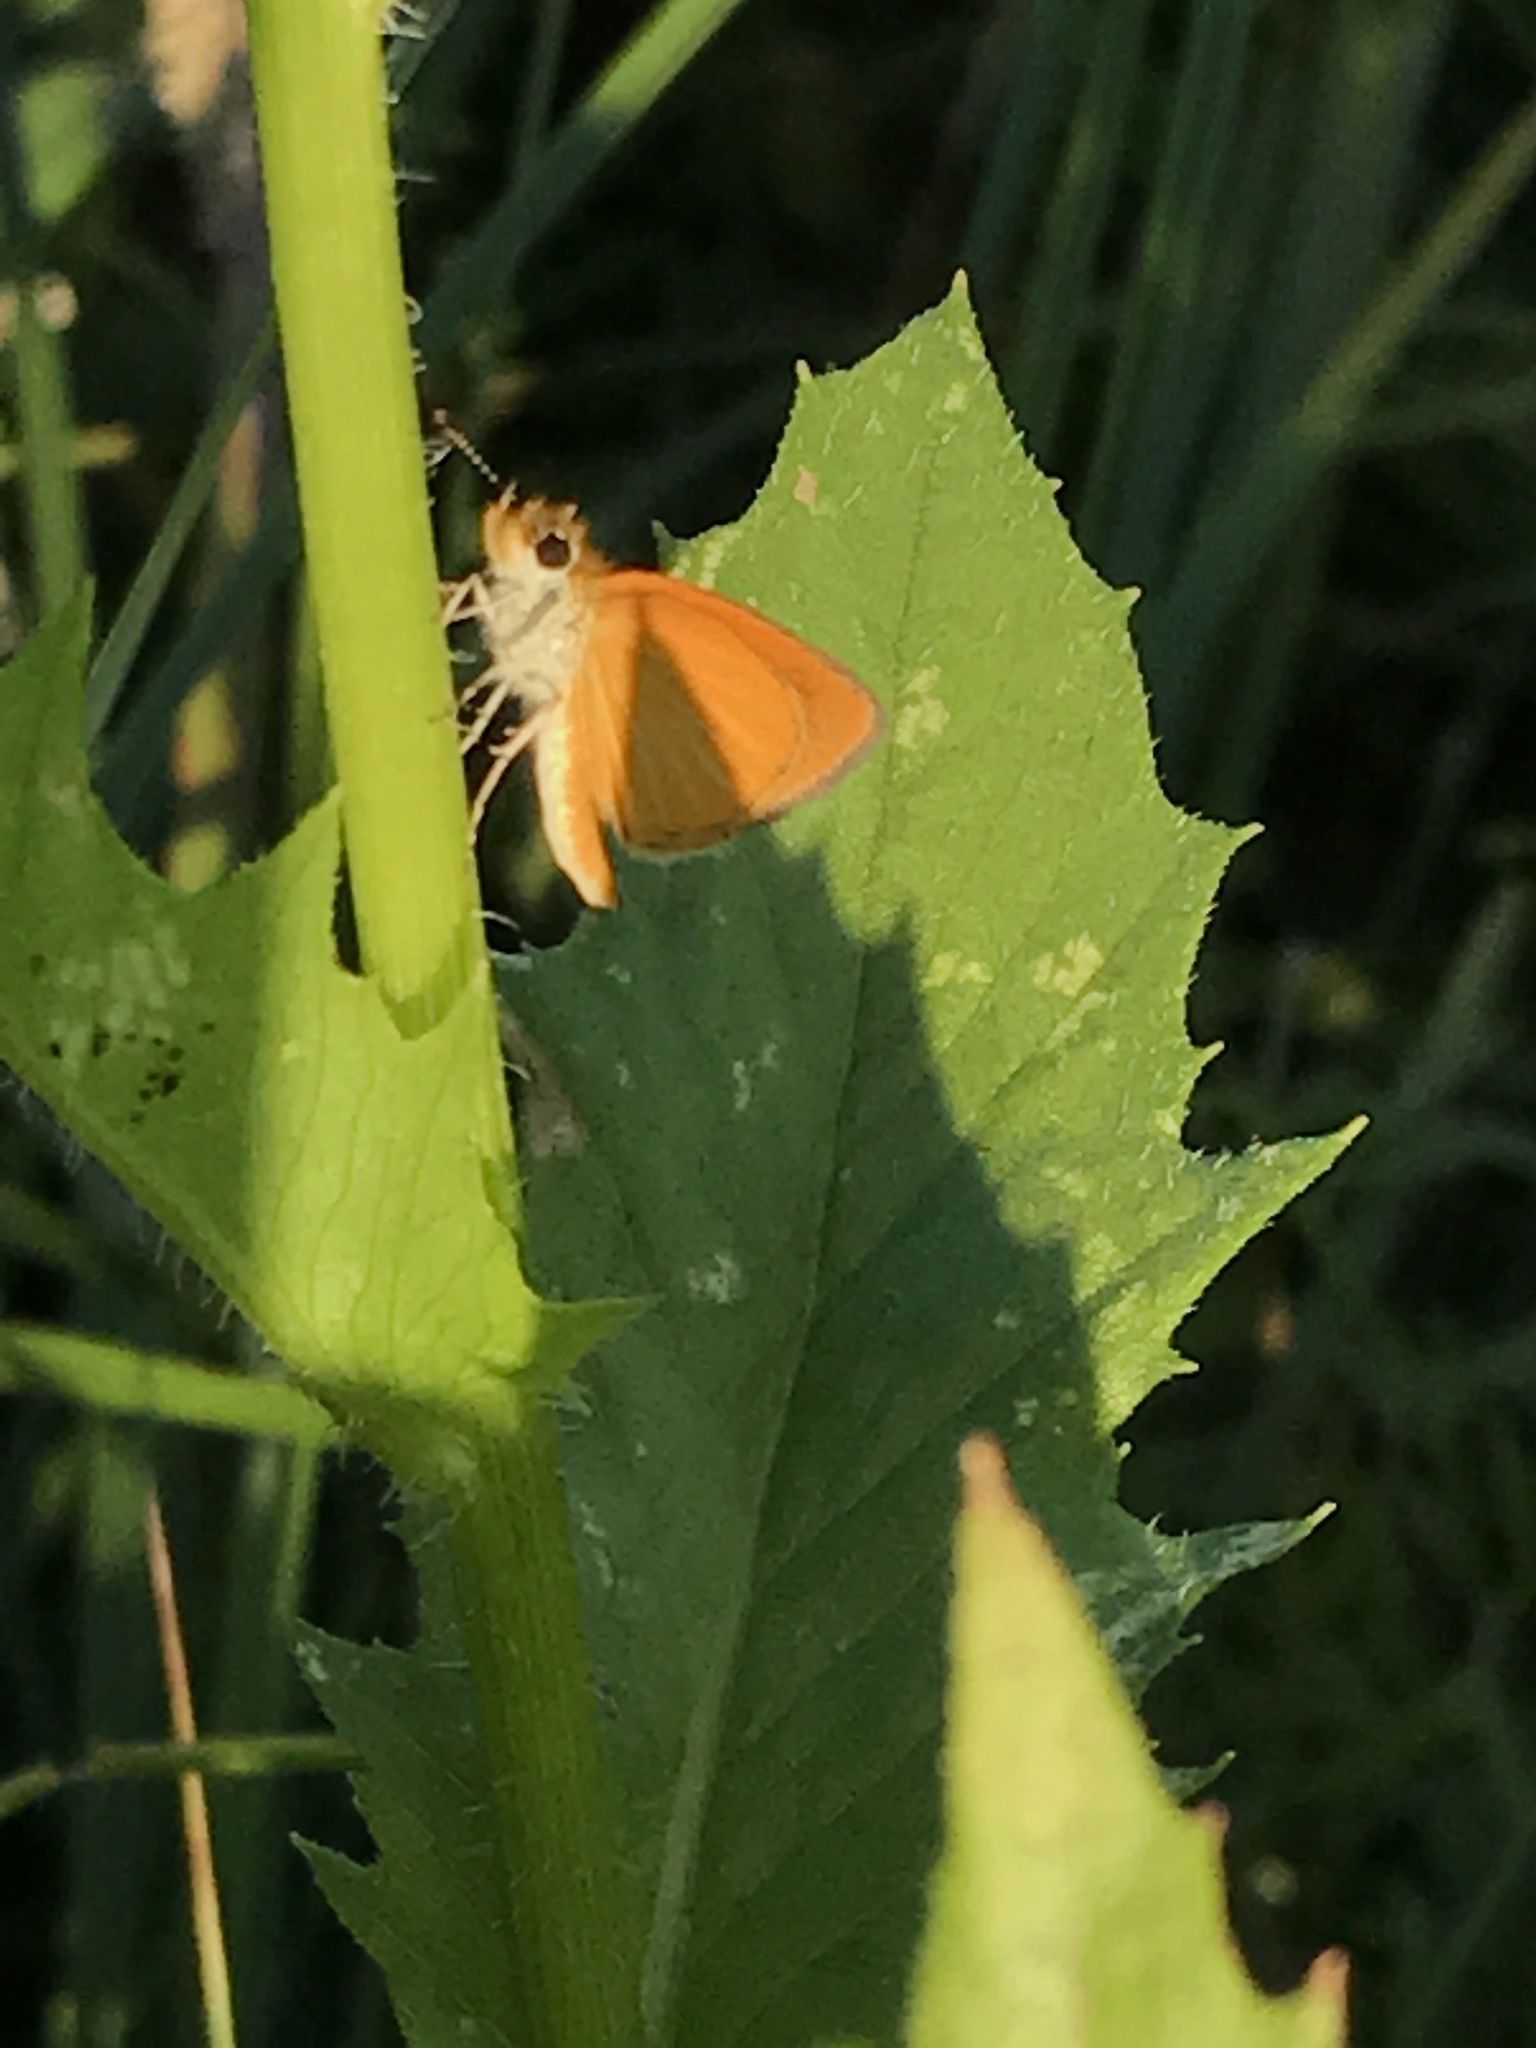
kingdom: Animalia
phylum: Arthropoda
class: Insecta
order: Lepidoptera
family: Hesperiidae
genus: Ancyloxypha
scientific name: Ancyloxypha numitor
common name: Least skipper
